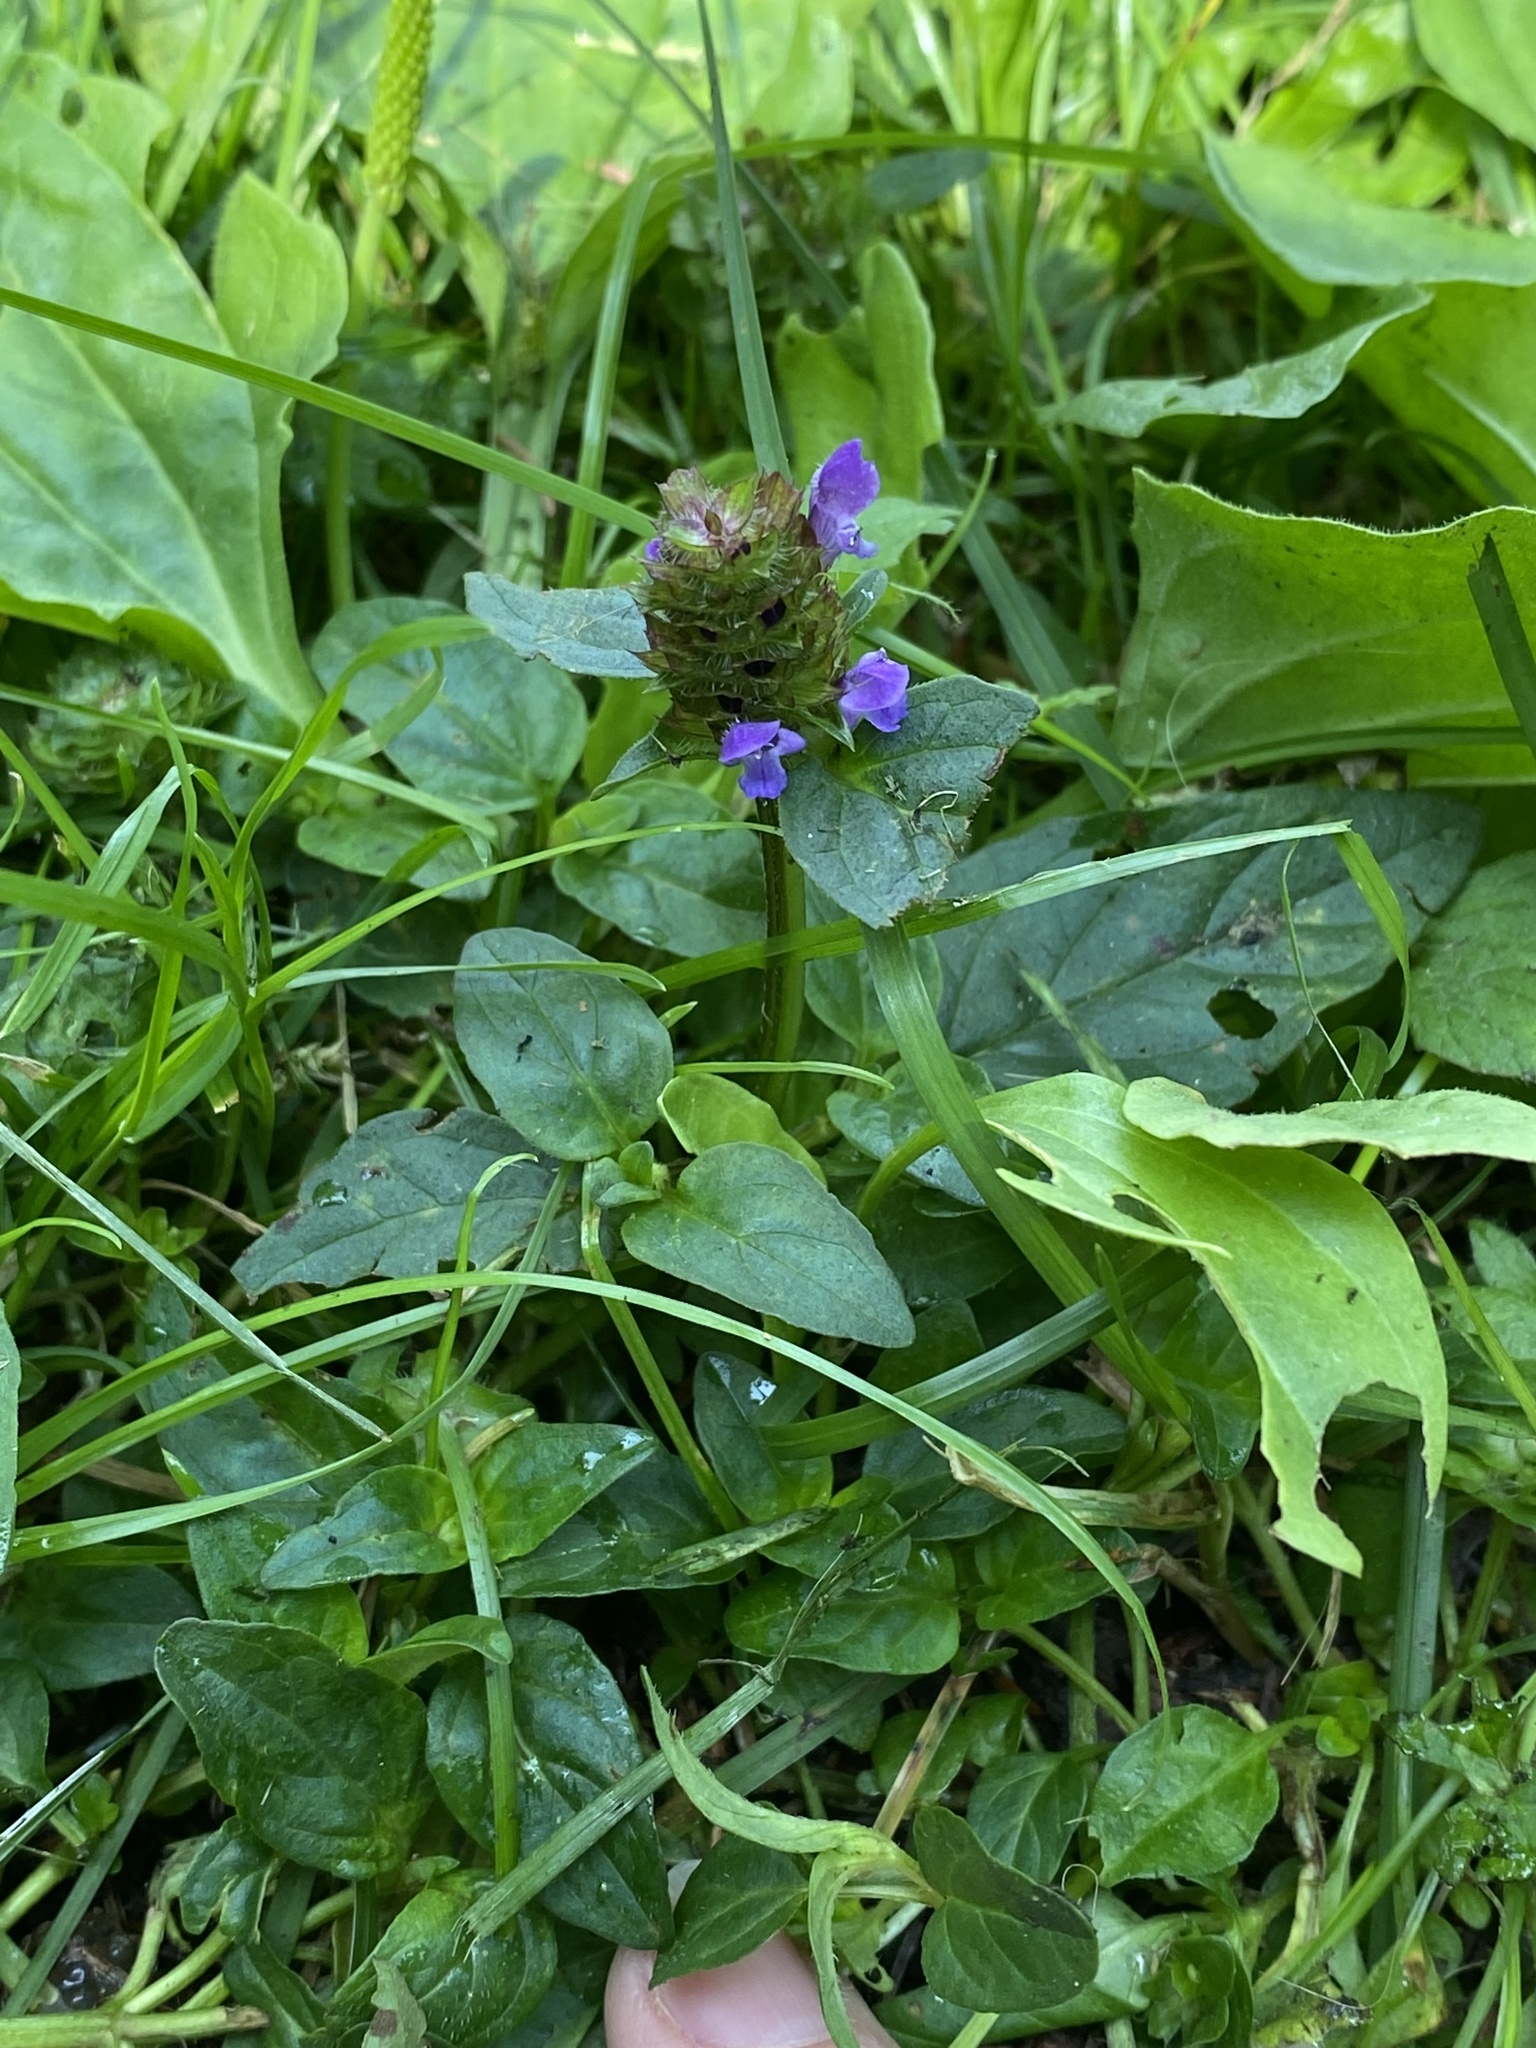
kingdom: Plantae
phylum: Tracheophyta
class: Magnoliopsida
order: Lamiales
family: Lamiaceae
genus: Prunella
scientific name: Prunella vulgaris
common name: Heal-all
